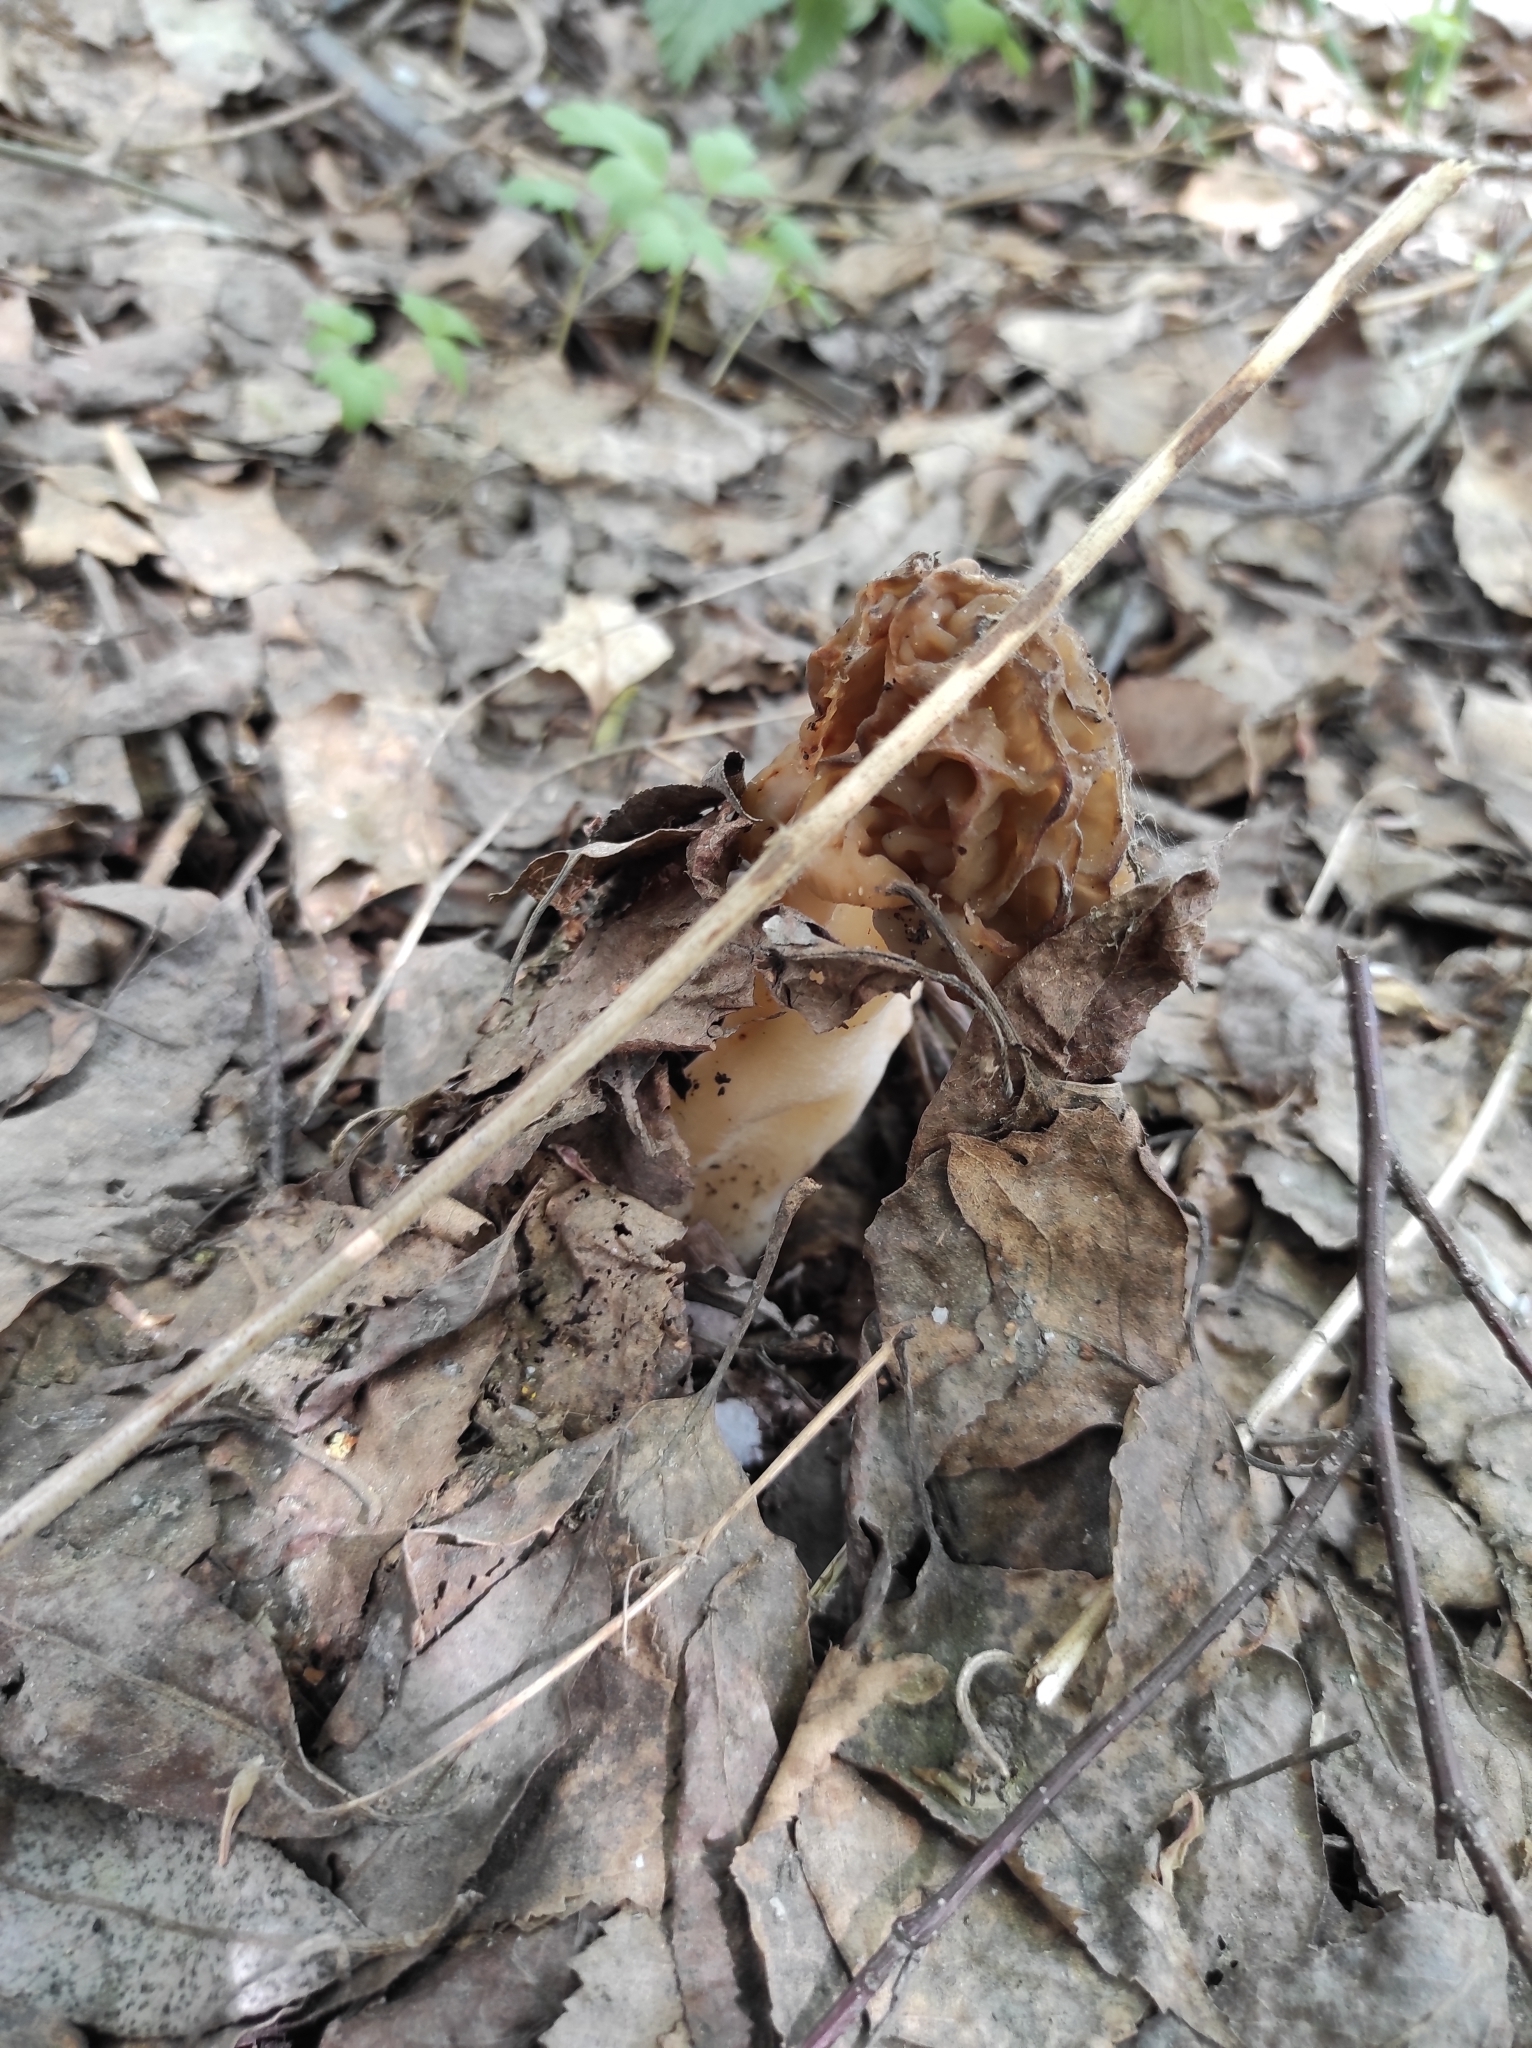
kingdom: Fungi
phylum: Ascomycota
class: Pezizomycetes
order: Pezizales
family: Morchellaceae
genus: Verpa
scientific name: Verpa bohemica
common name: Wrinkled thimble morel
